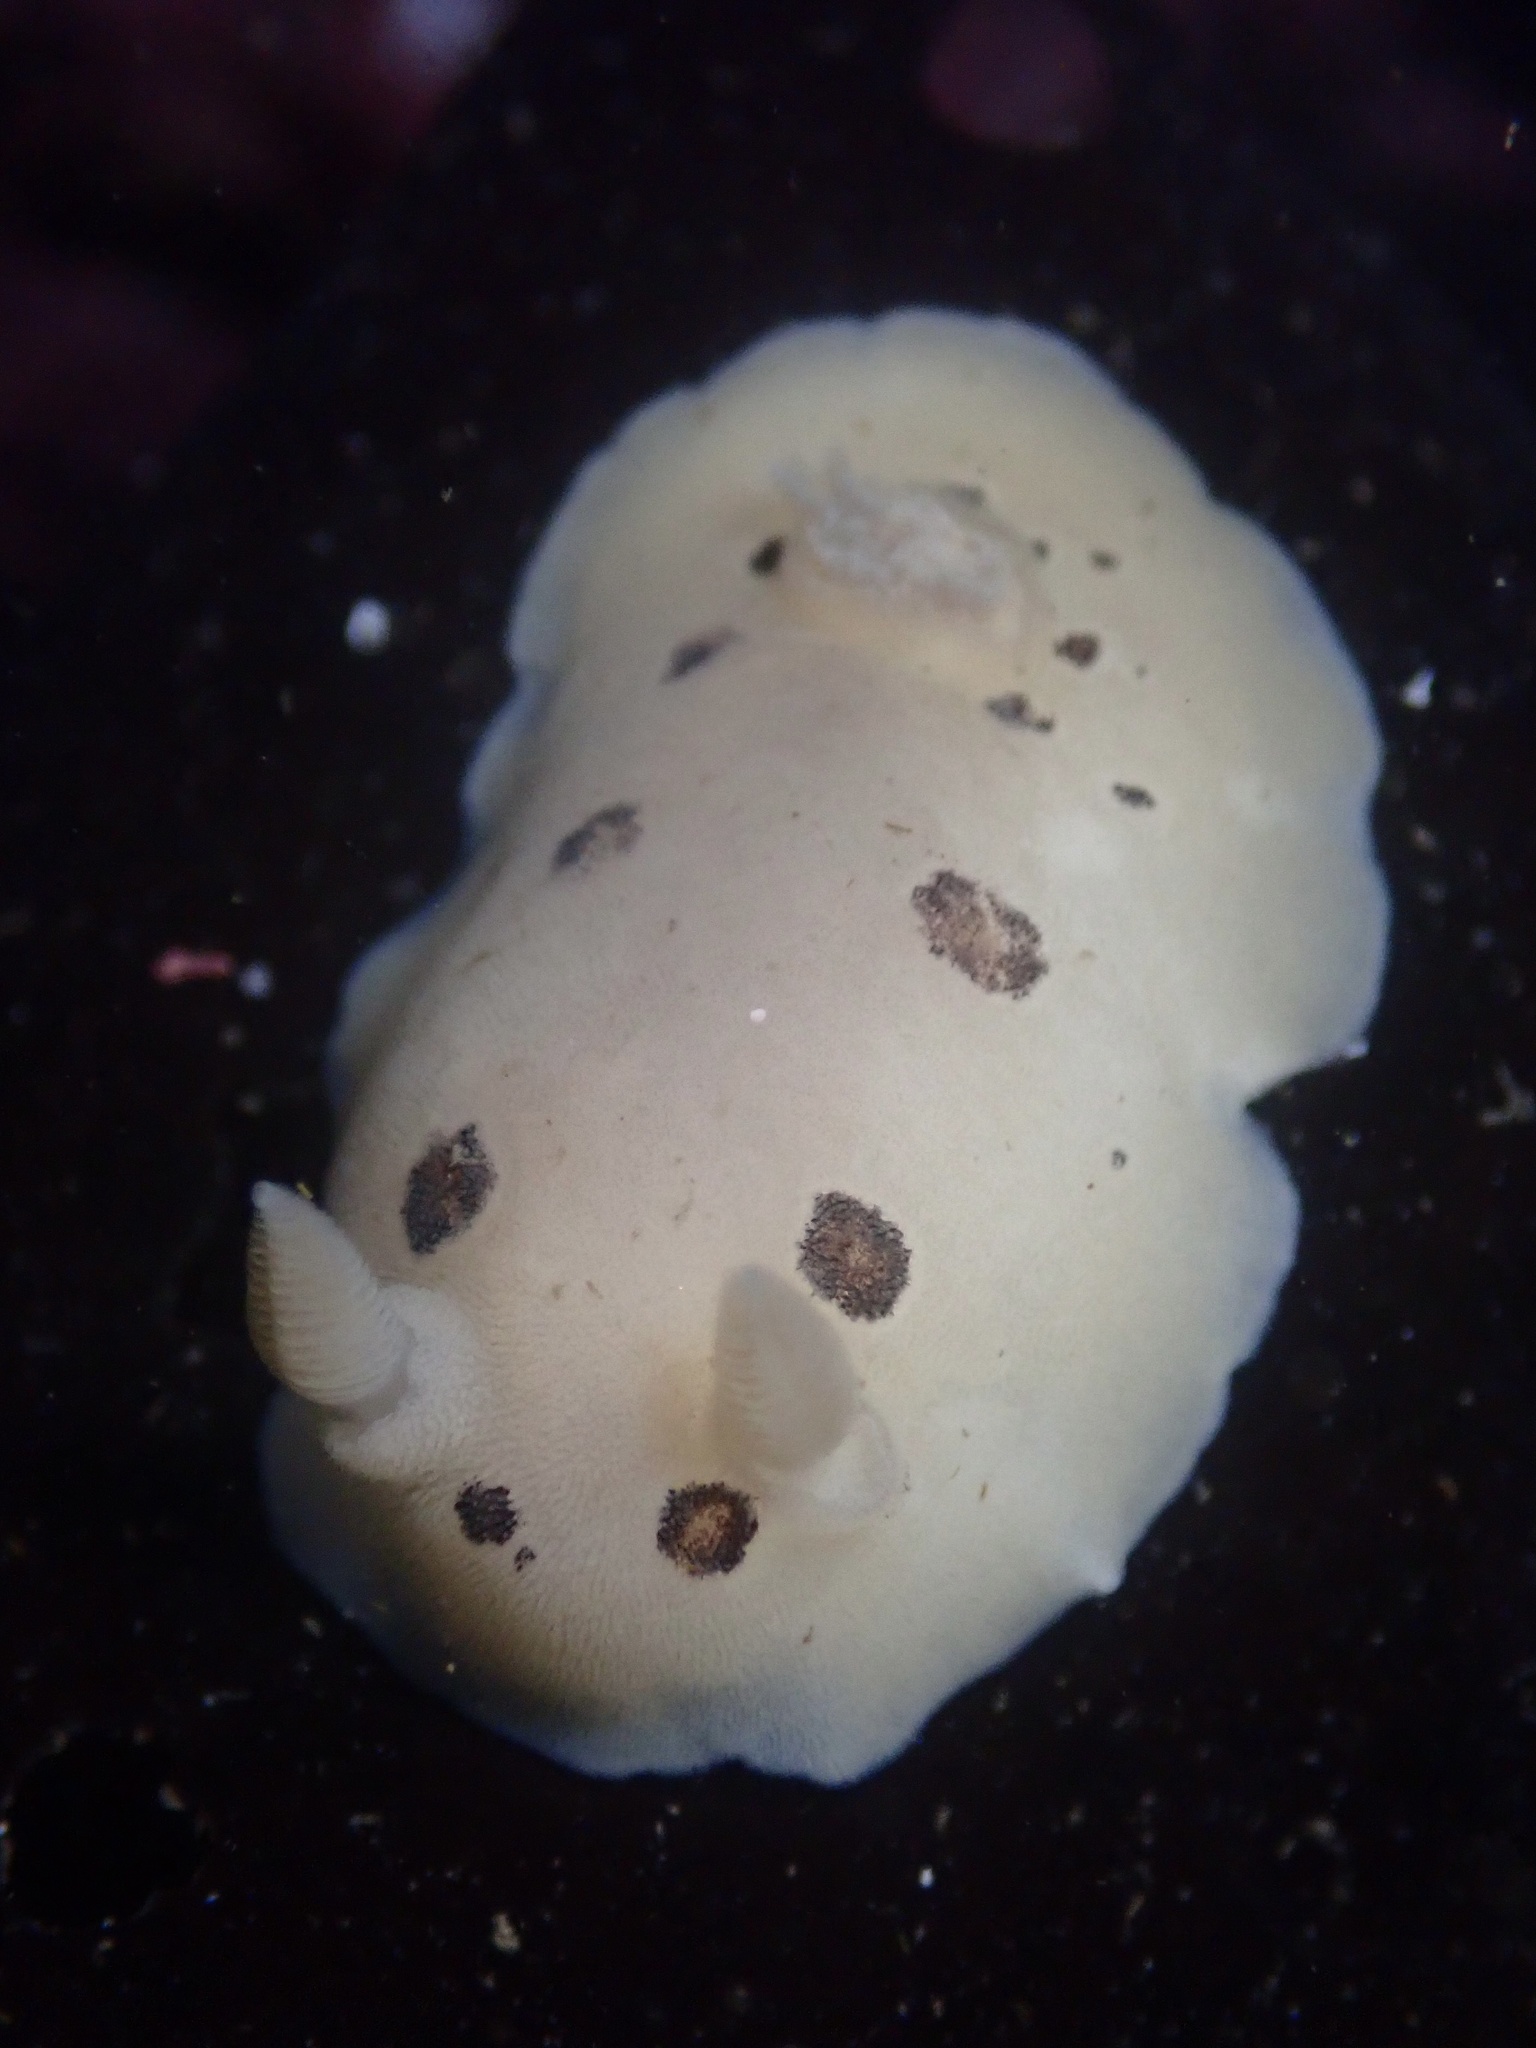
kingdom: Animalia
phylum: Mollusca
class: Gastropoda
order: Nudibranchia
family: Discodorididae
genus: Diaulula
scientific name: Diaulula sandiegensis
